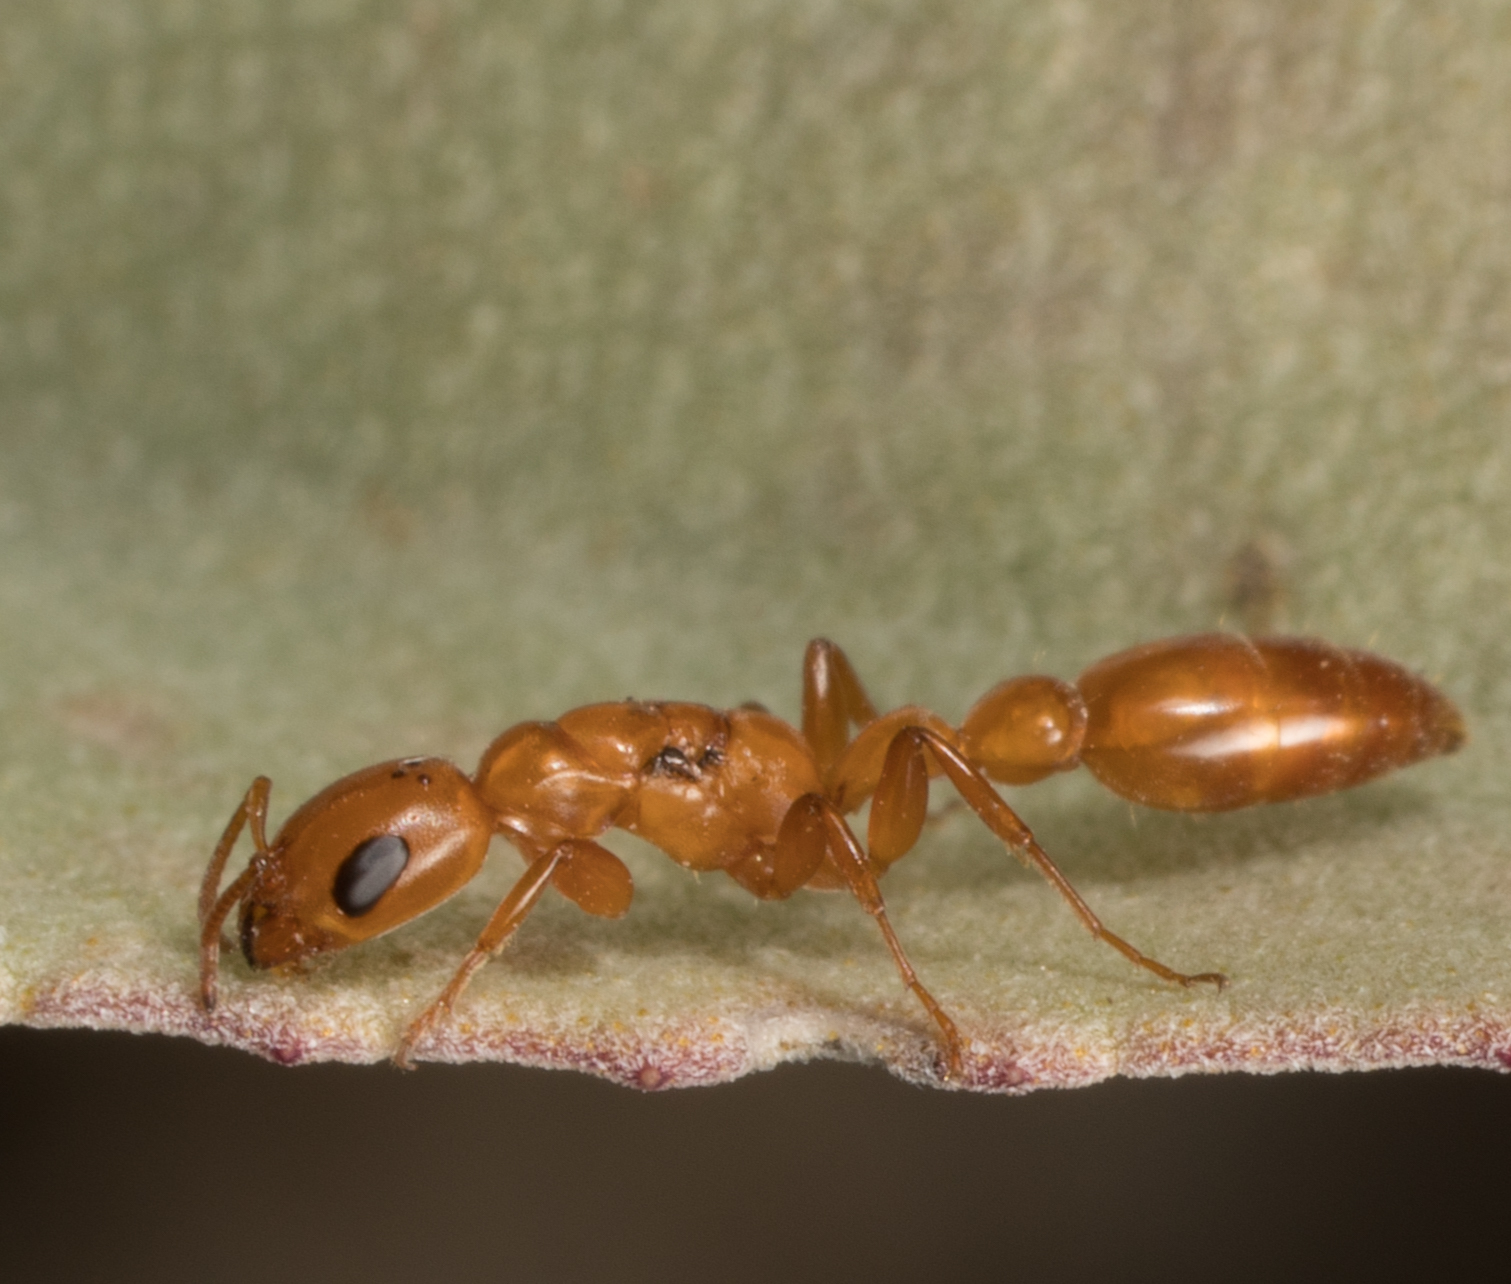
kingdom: Animalia
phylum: Arthropoda
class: Insecta
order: Hymenoptera
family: Formicidae
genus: Pseudomyrmex
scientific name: Pseudomyrmex apache
